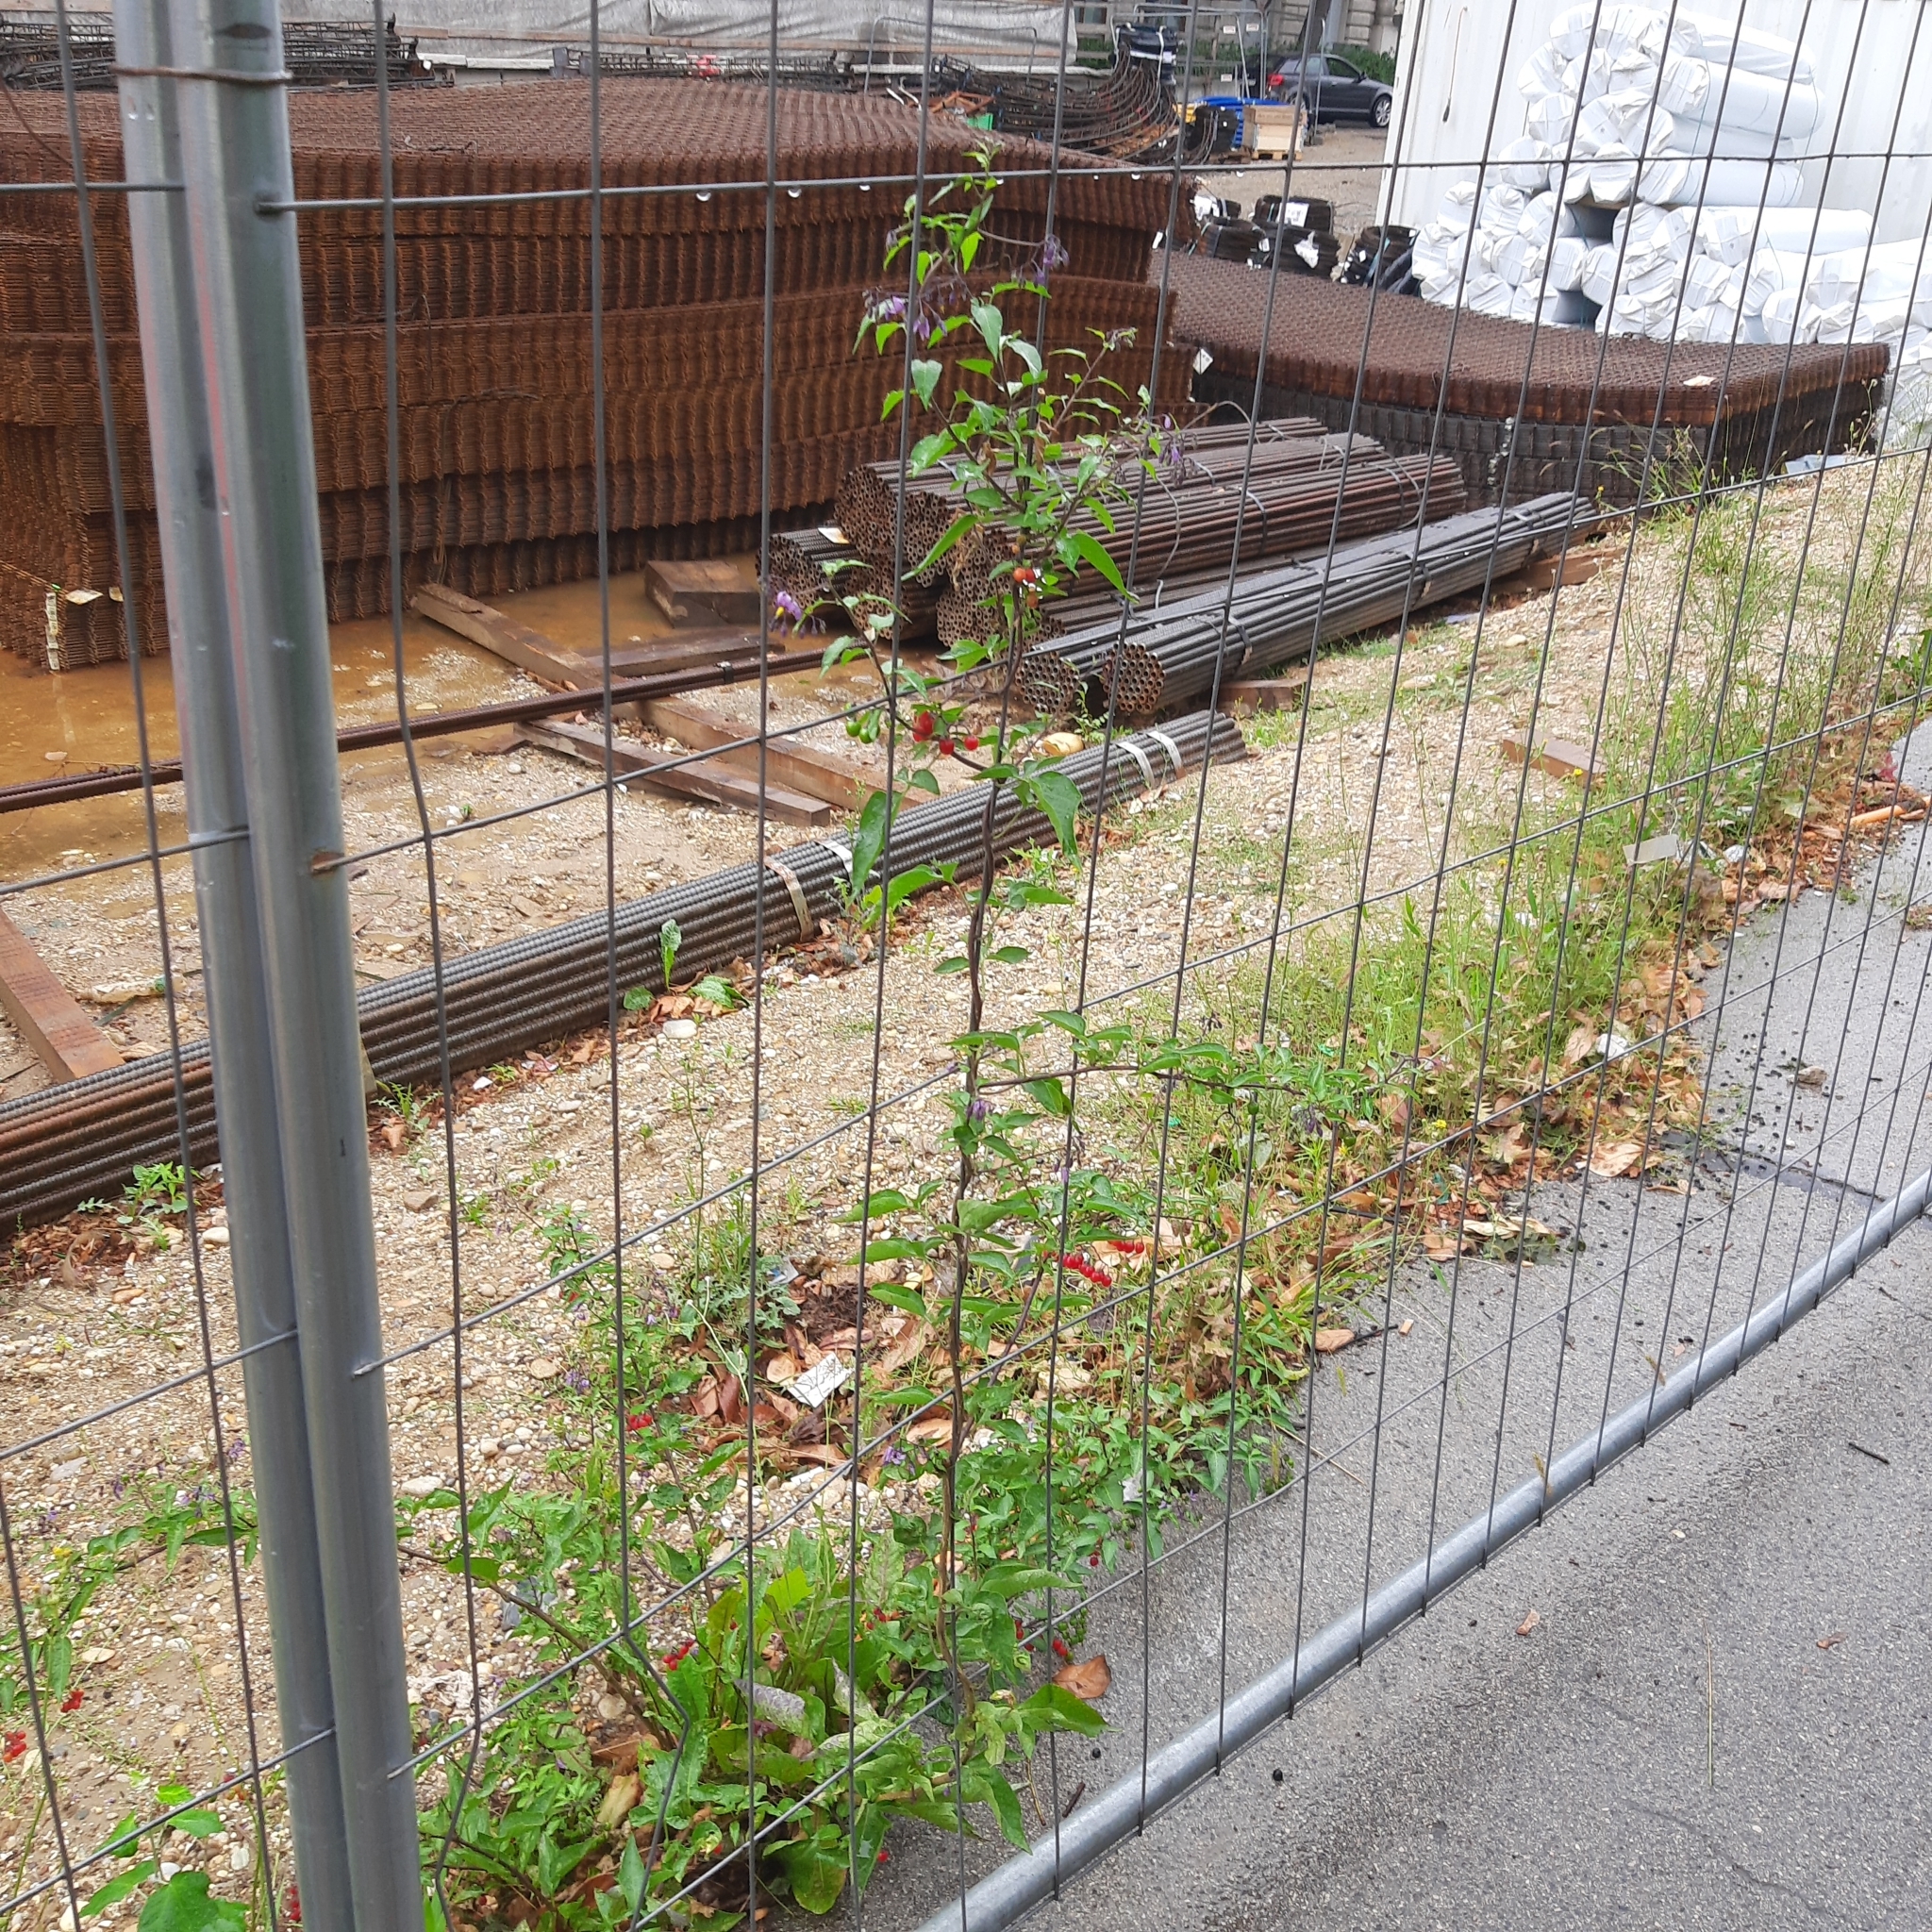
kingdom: Plantae
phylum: Tracheophyta
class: Magnoliopsida
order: Solanales
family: Solanaceae
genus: Solanum
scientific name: Solanum dulcamara
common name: Climbing nightshade
